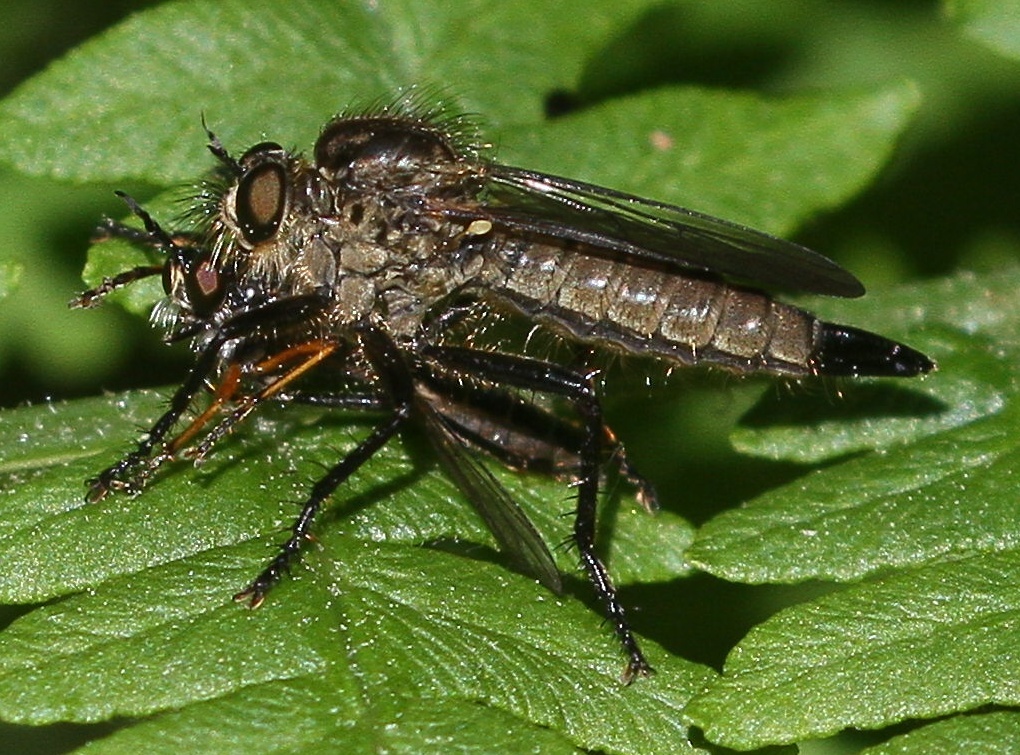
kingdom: Animalia
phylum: Arthropoda
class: Insecta
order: Diptera
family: Asilidae
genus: Didysmachus
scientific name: Didysmachus picipes
